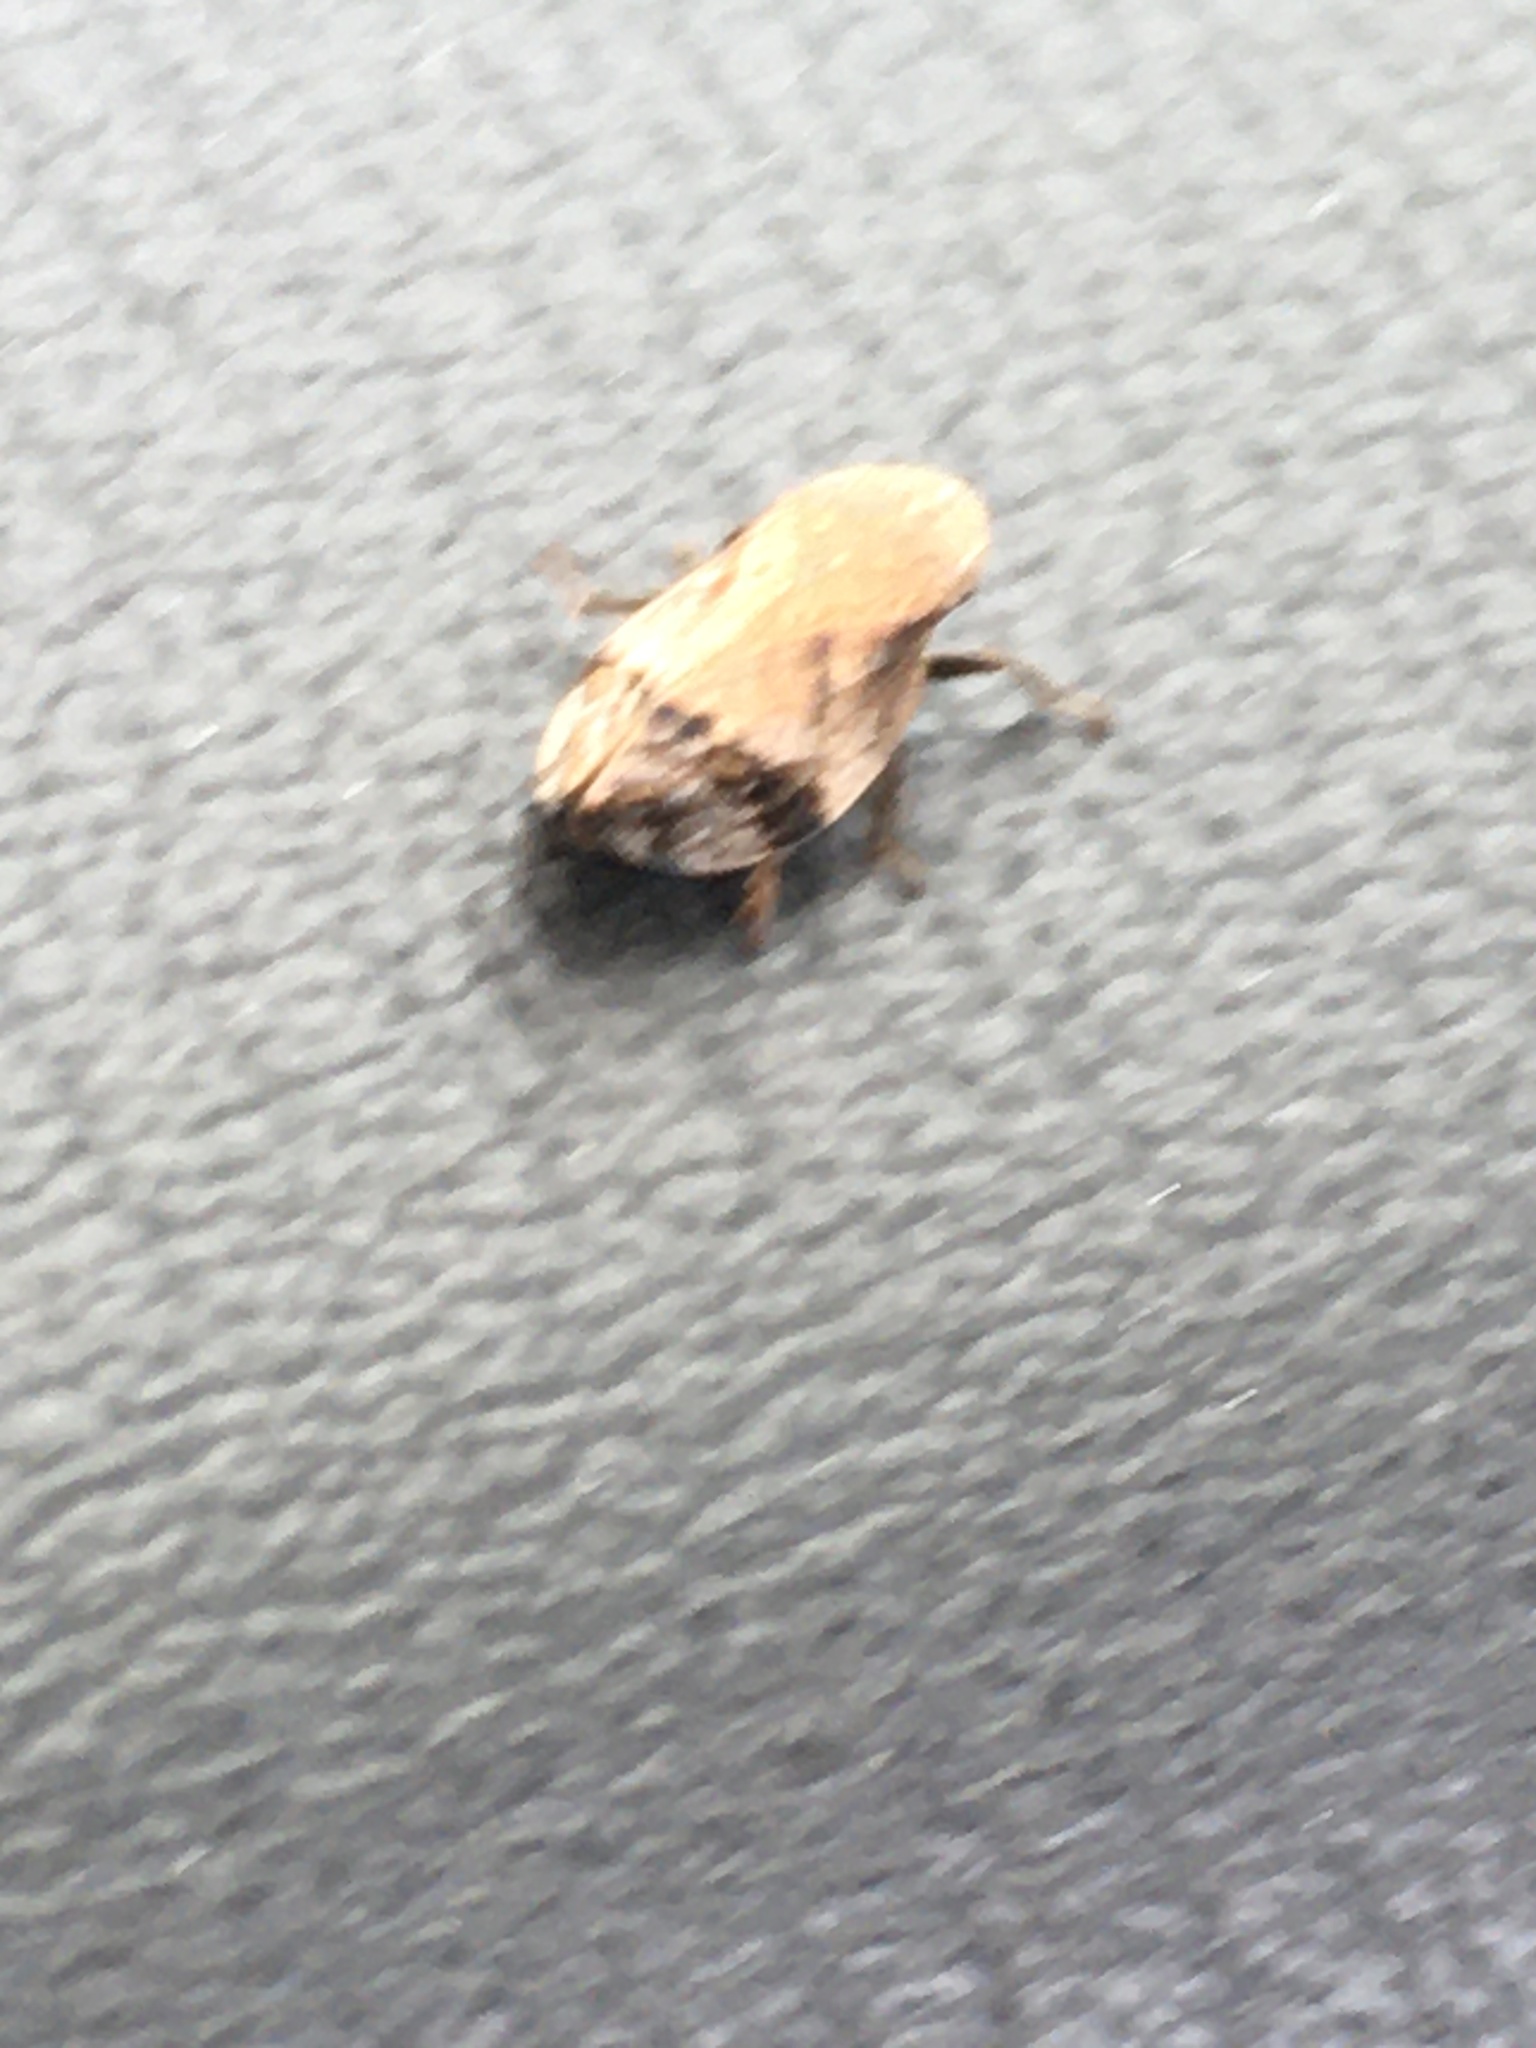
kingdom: Animalia
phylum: Arthropoda
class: Insecta
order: Hemiptera
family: Aphrophoridae
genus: Lepyronia
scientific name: Lepyronia quadrangularis
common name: Diamond-backed spittlebug
